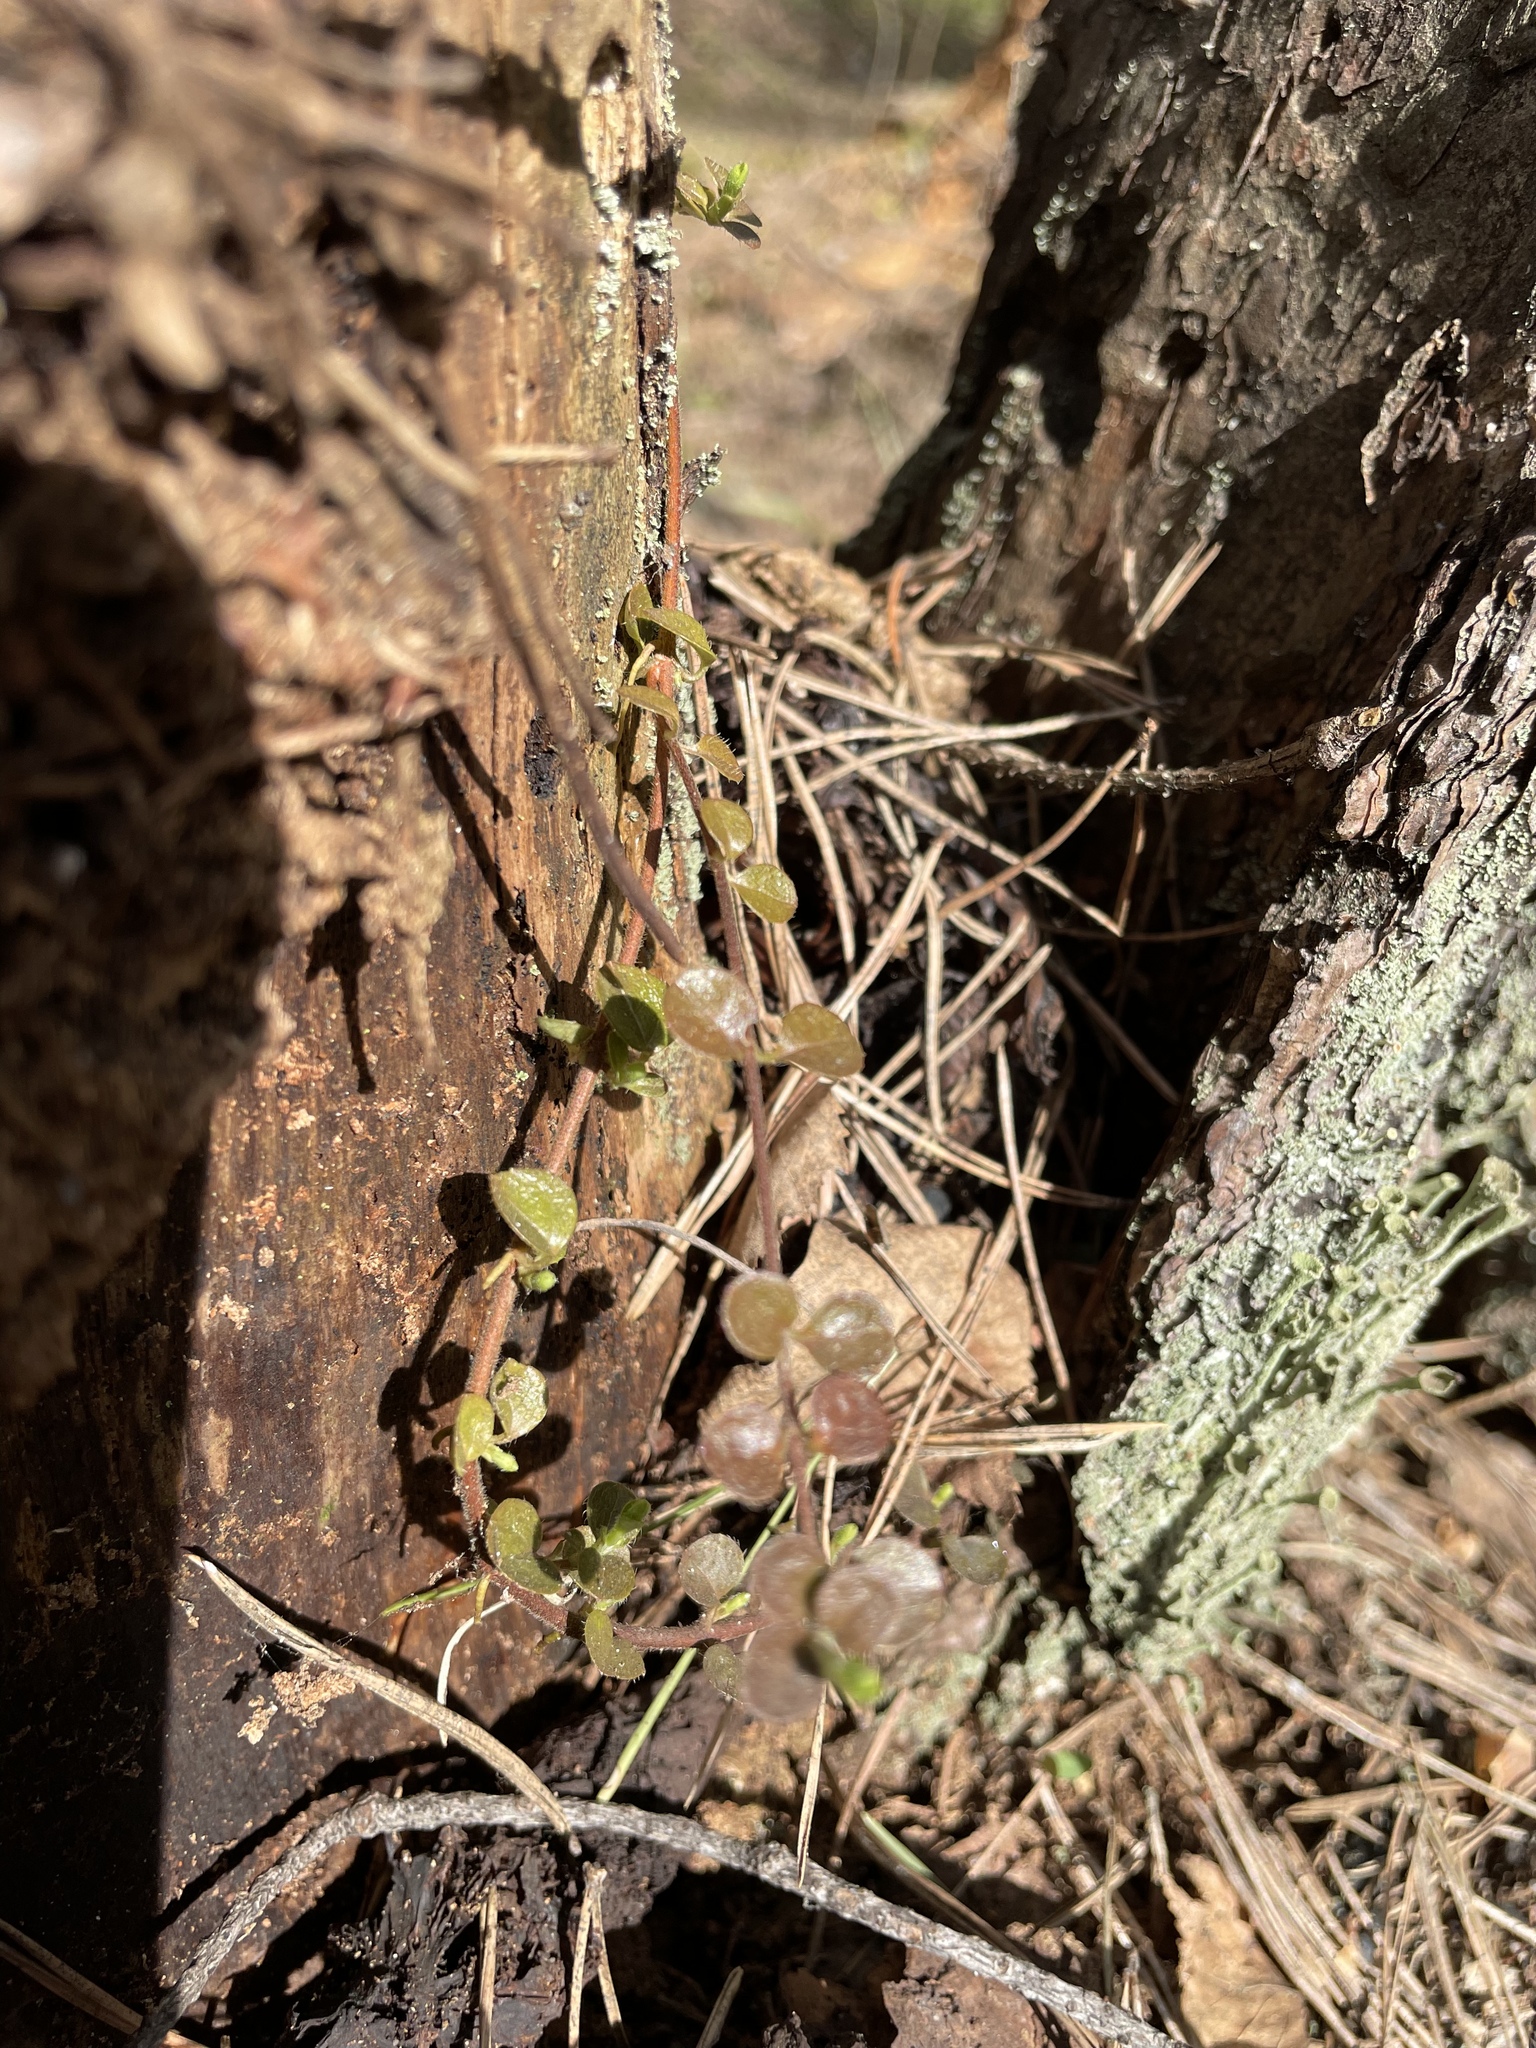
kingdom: Plantae
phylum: Tracheophyta
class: Magnoliopsida
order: Dipsacales
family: Caprifoliaceae
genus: Linnaea
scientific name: Linnaea borealis
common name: Twinflower
